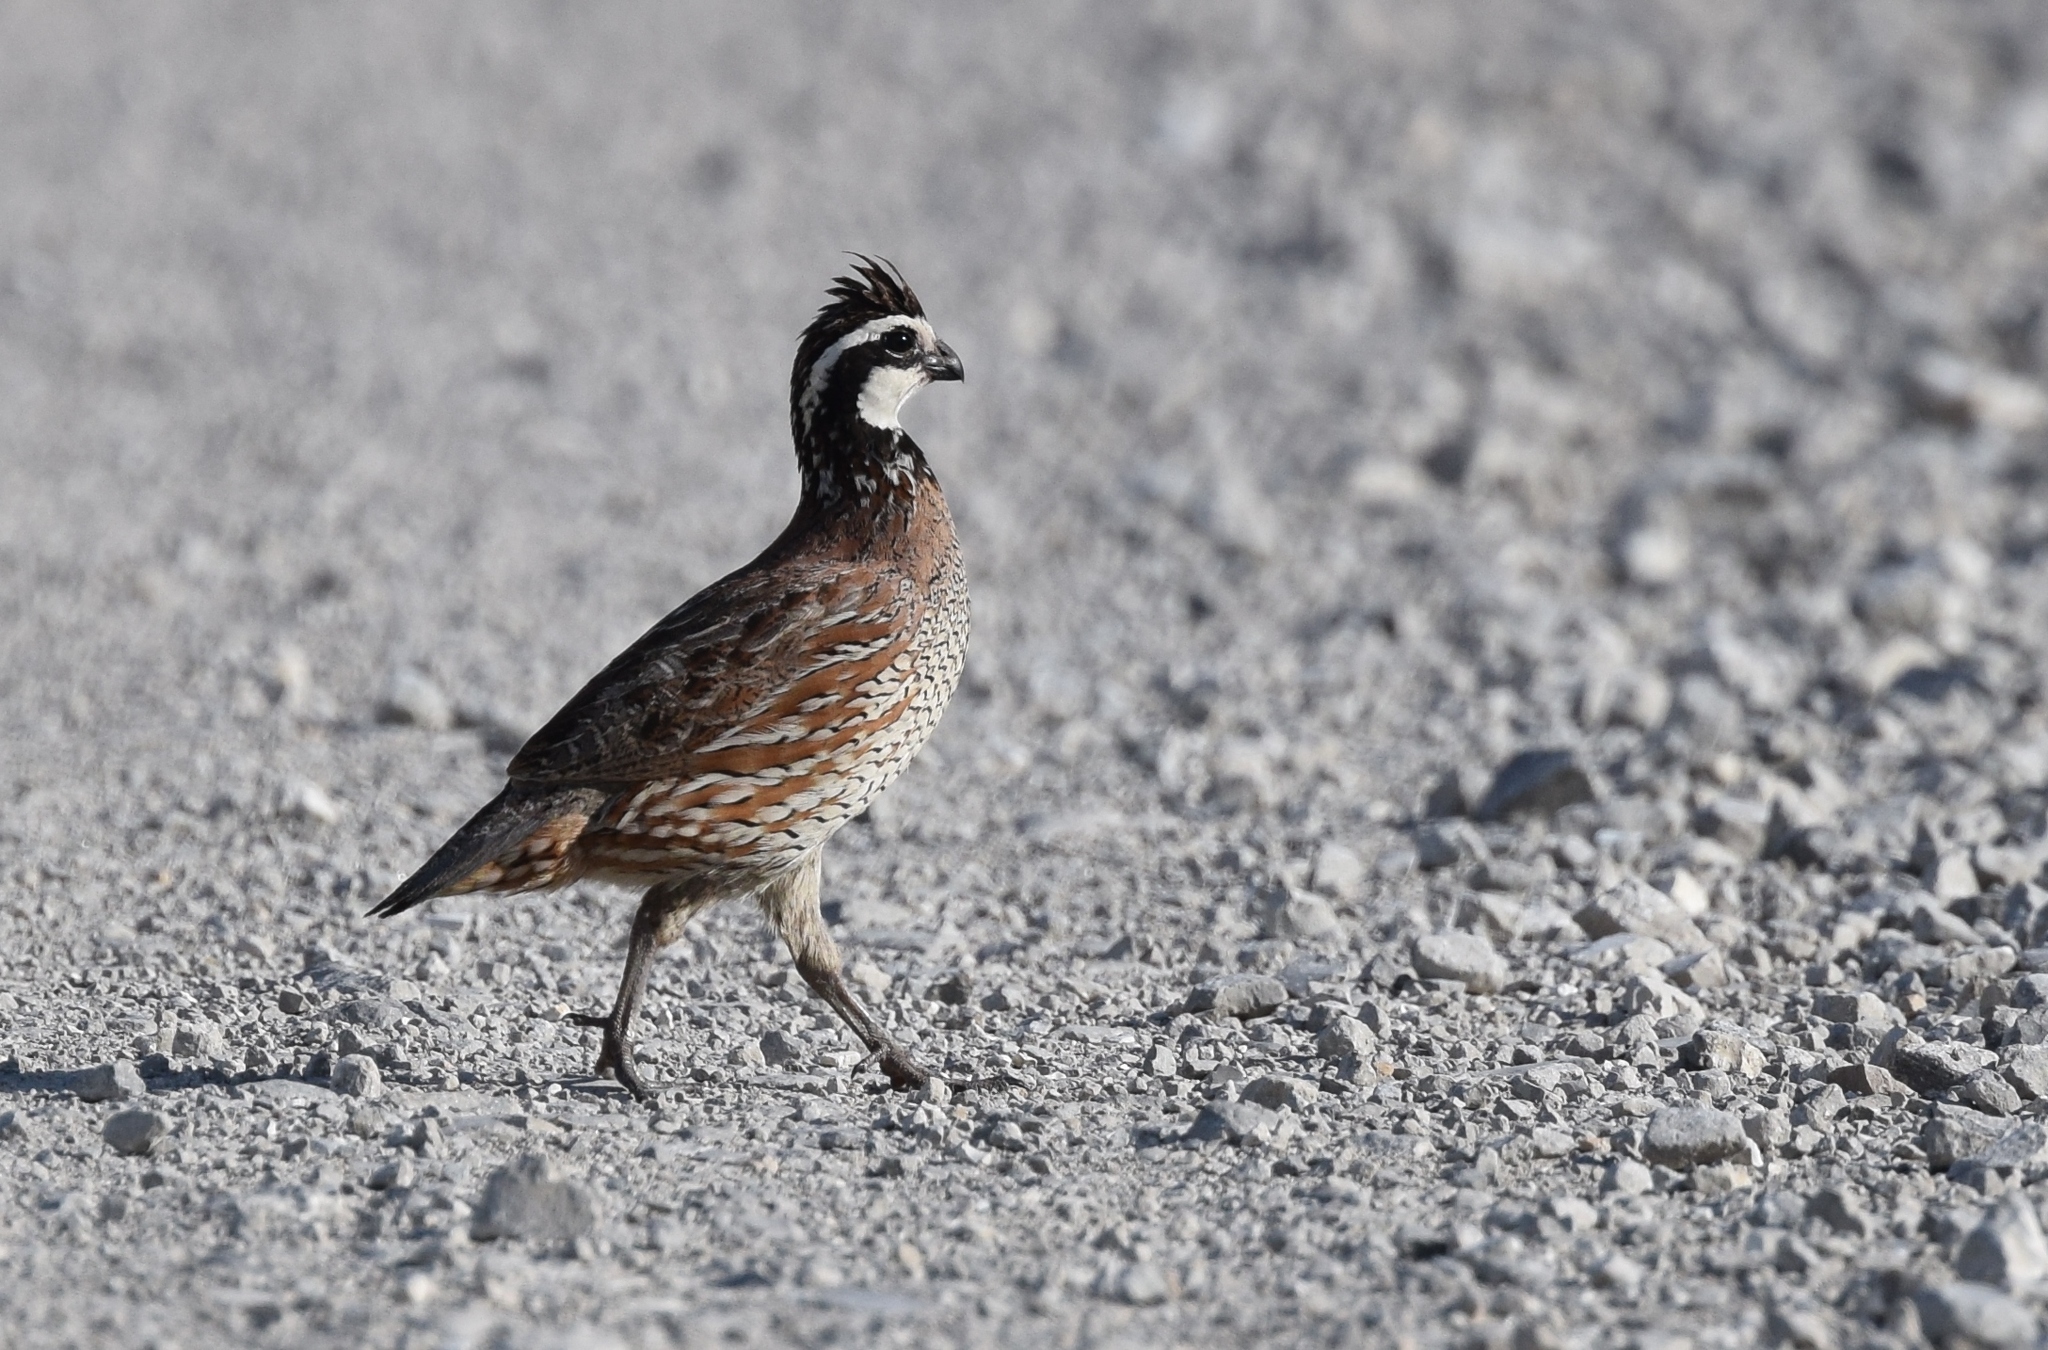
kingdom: Animalia
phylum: Chordata
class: Aves
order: Galliformes
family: Odontophoridae
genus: Colinus
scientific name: Colinus virginianus
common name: Northern bobwhite
